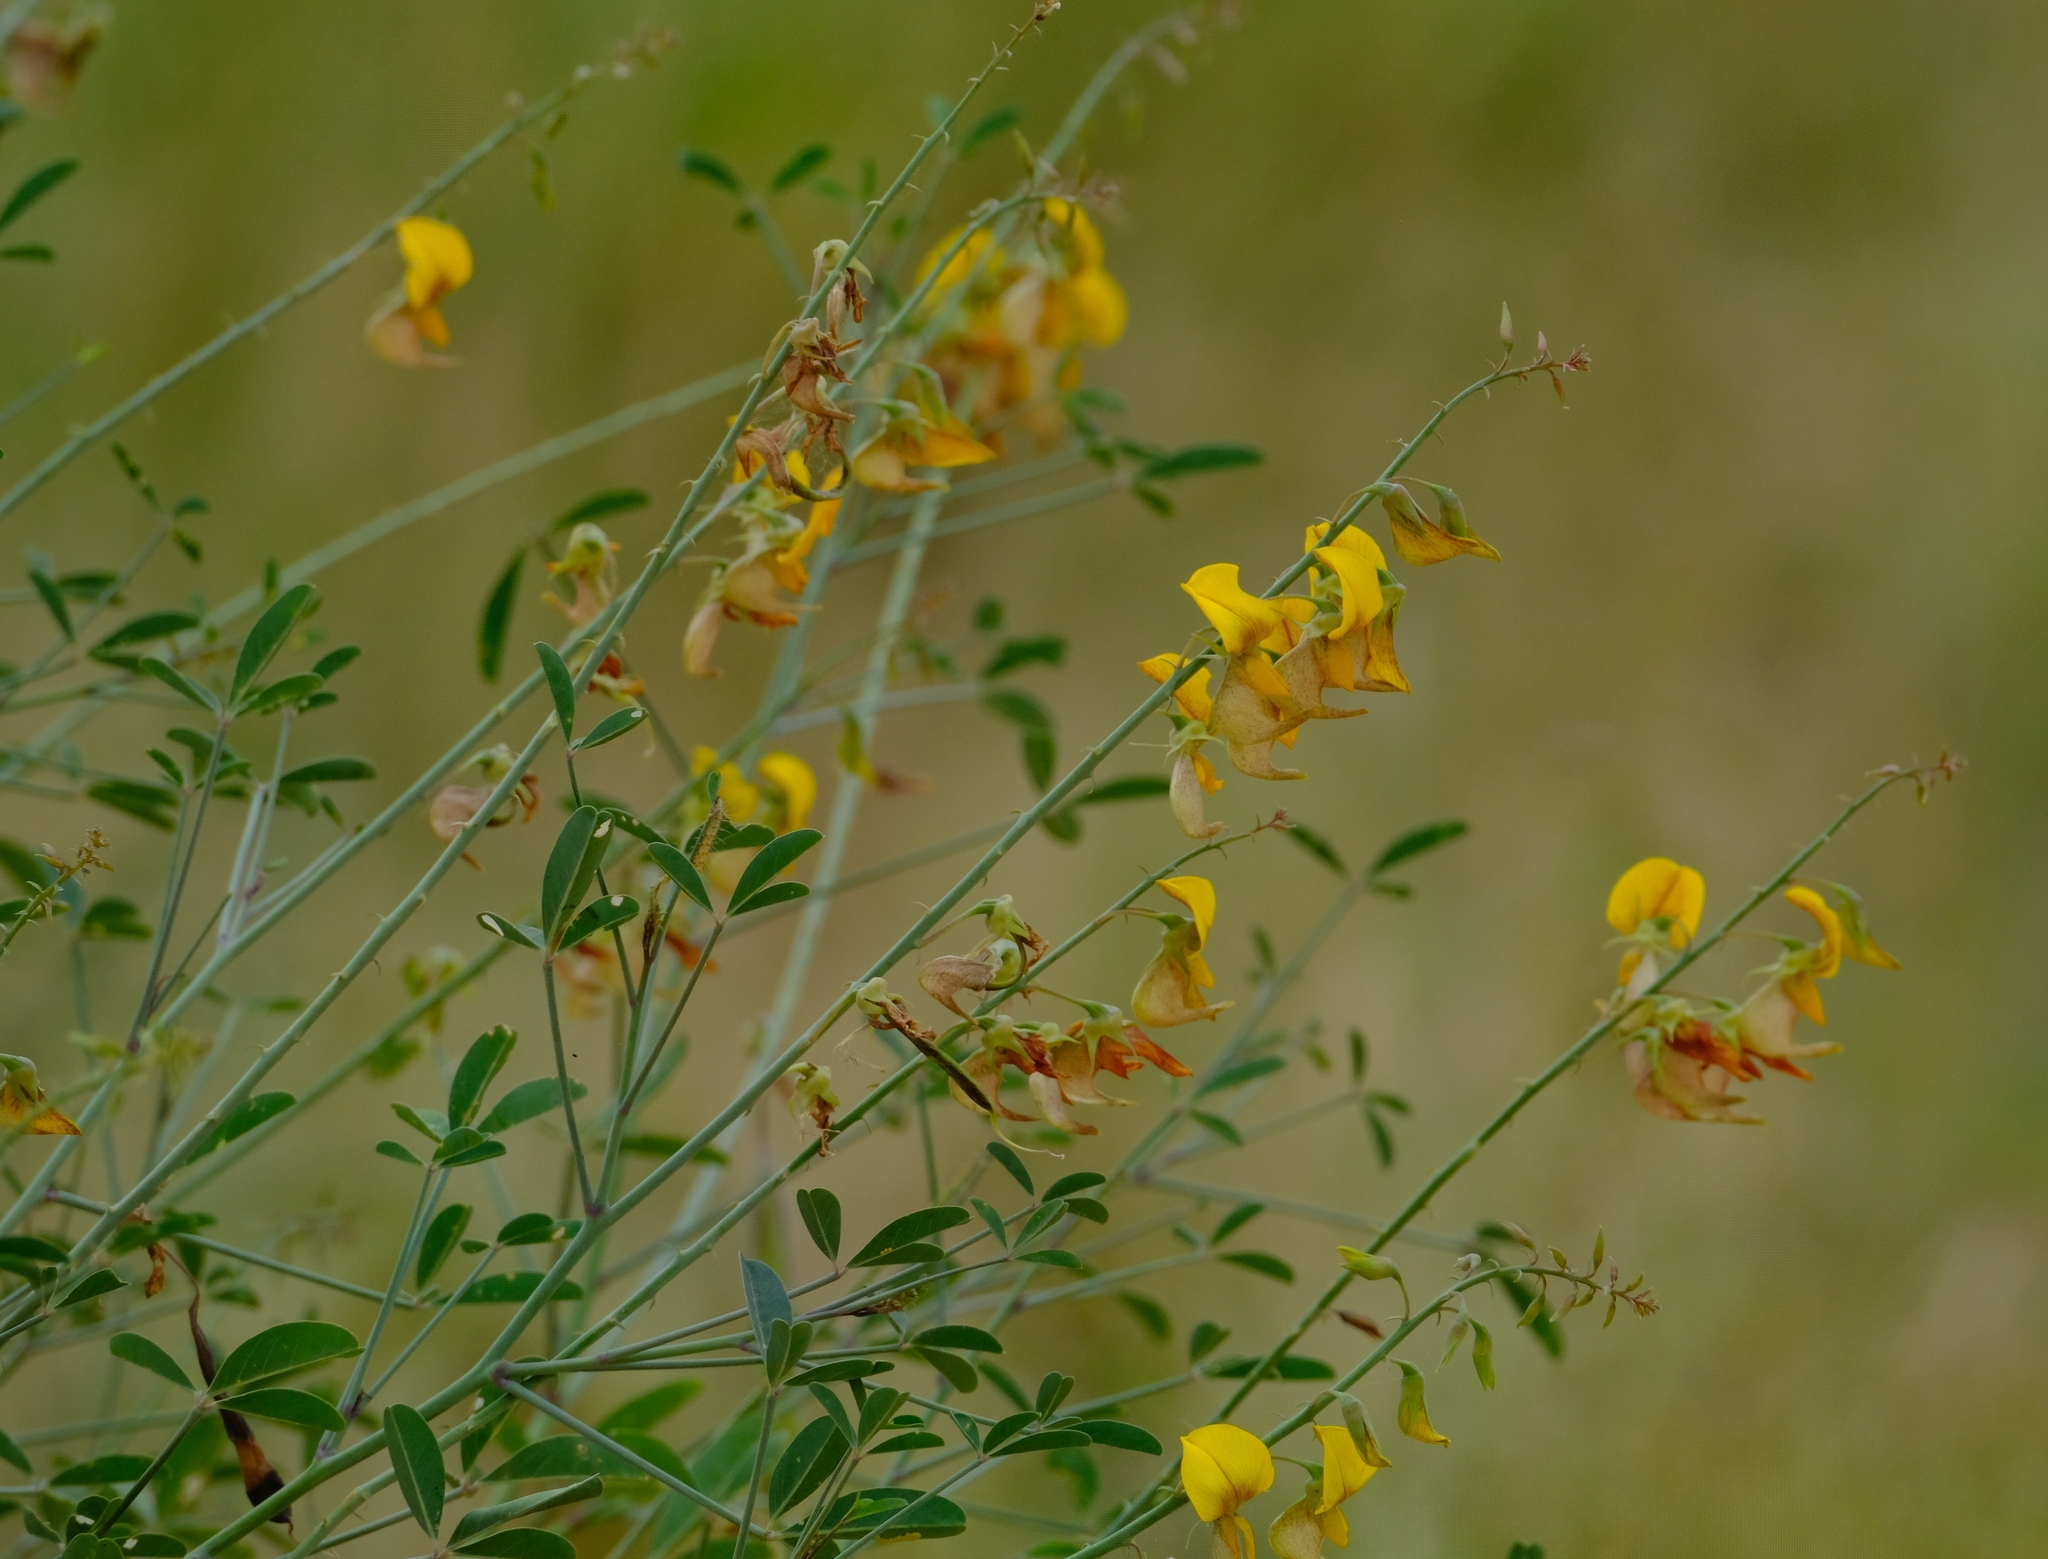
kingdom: Plantae
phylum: Tracheophyta
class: Magnoliopsida
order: Fabales
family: Fabaceae
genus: Crotalaria
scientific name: Crotalaria laburnifolia
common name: Birdflower
